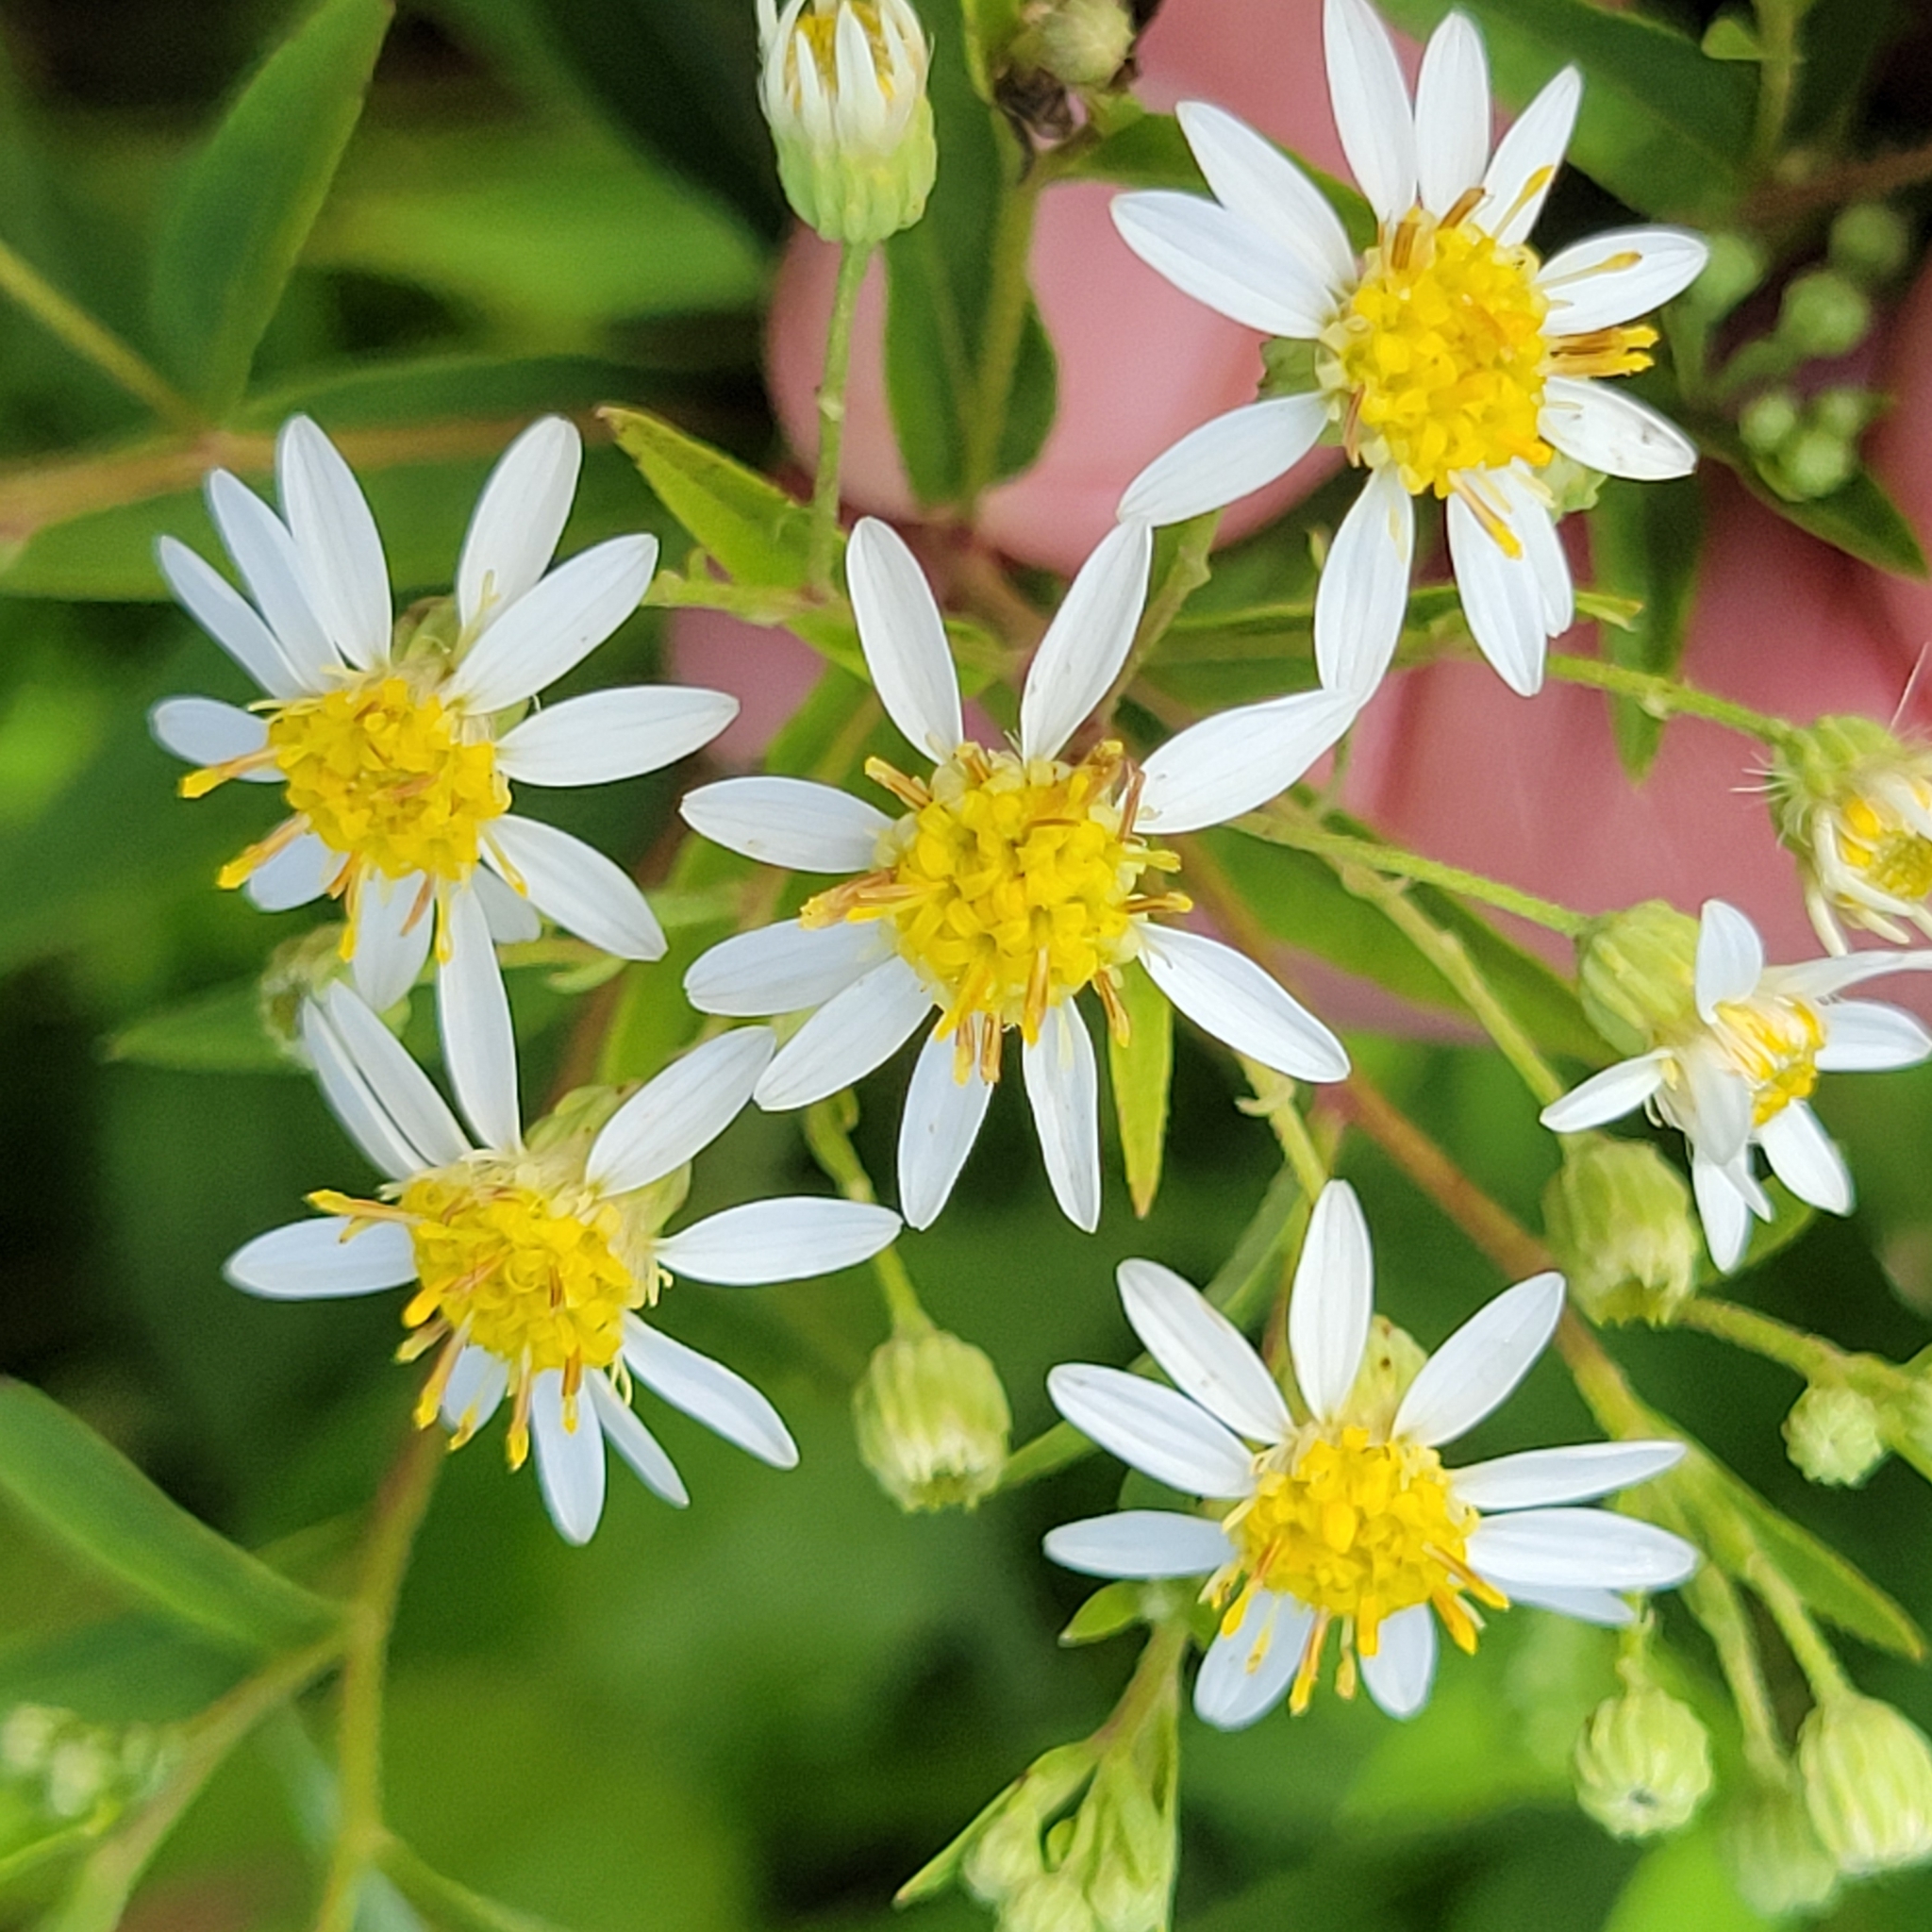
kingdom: Plantae
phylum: Tracheophyta
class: Magnoliopsida
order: Asterales
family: Asteraceae
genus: Doellingeria
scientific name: Doellingeria umbellata
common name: Flat-top white aster
